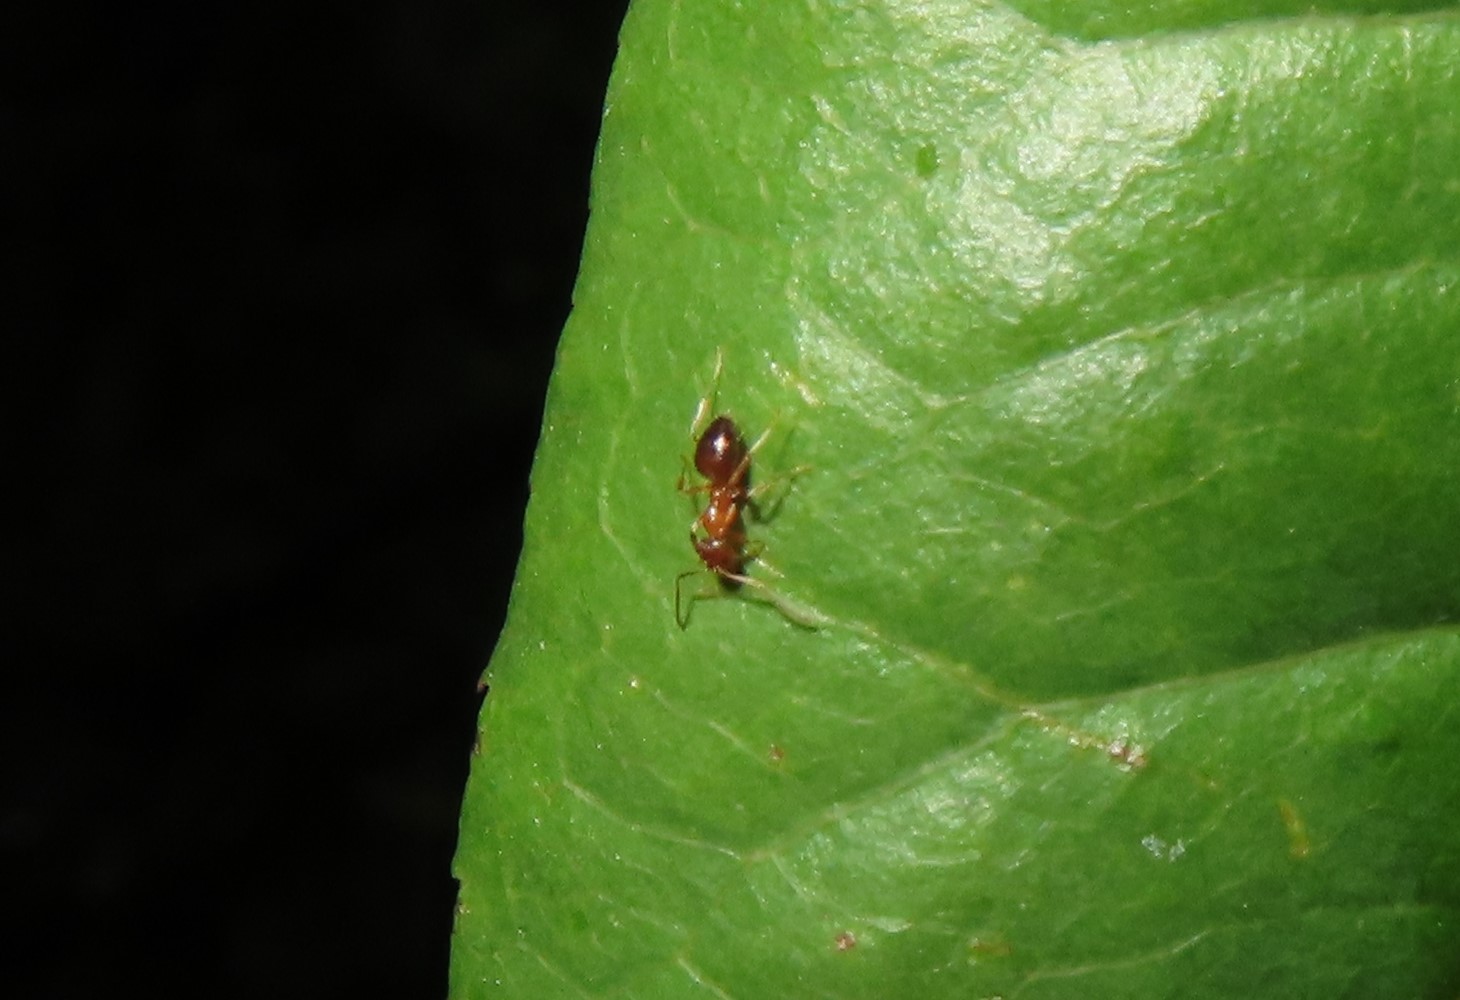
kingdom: Animalia
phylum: Arthropoda
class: Insecta
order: Hymenoptera
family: Formicidae
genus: Paratrechina
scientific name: Paratrechina flavipes
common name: Eastern asian formicine ant
